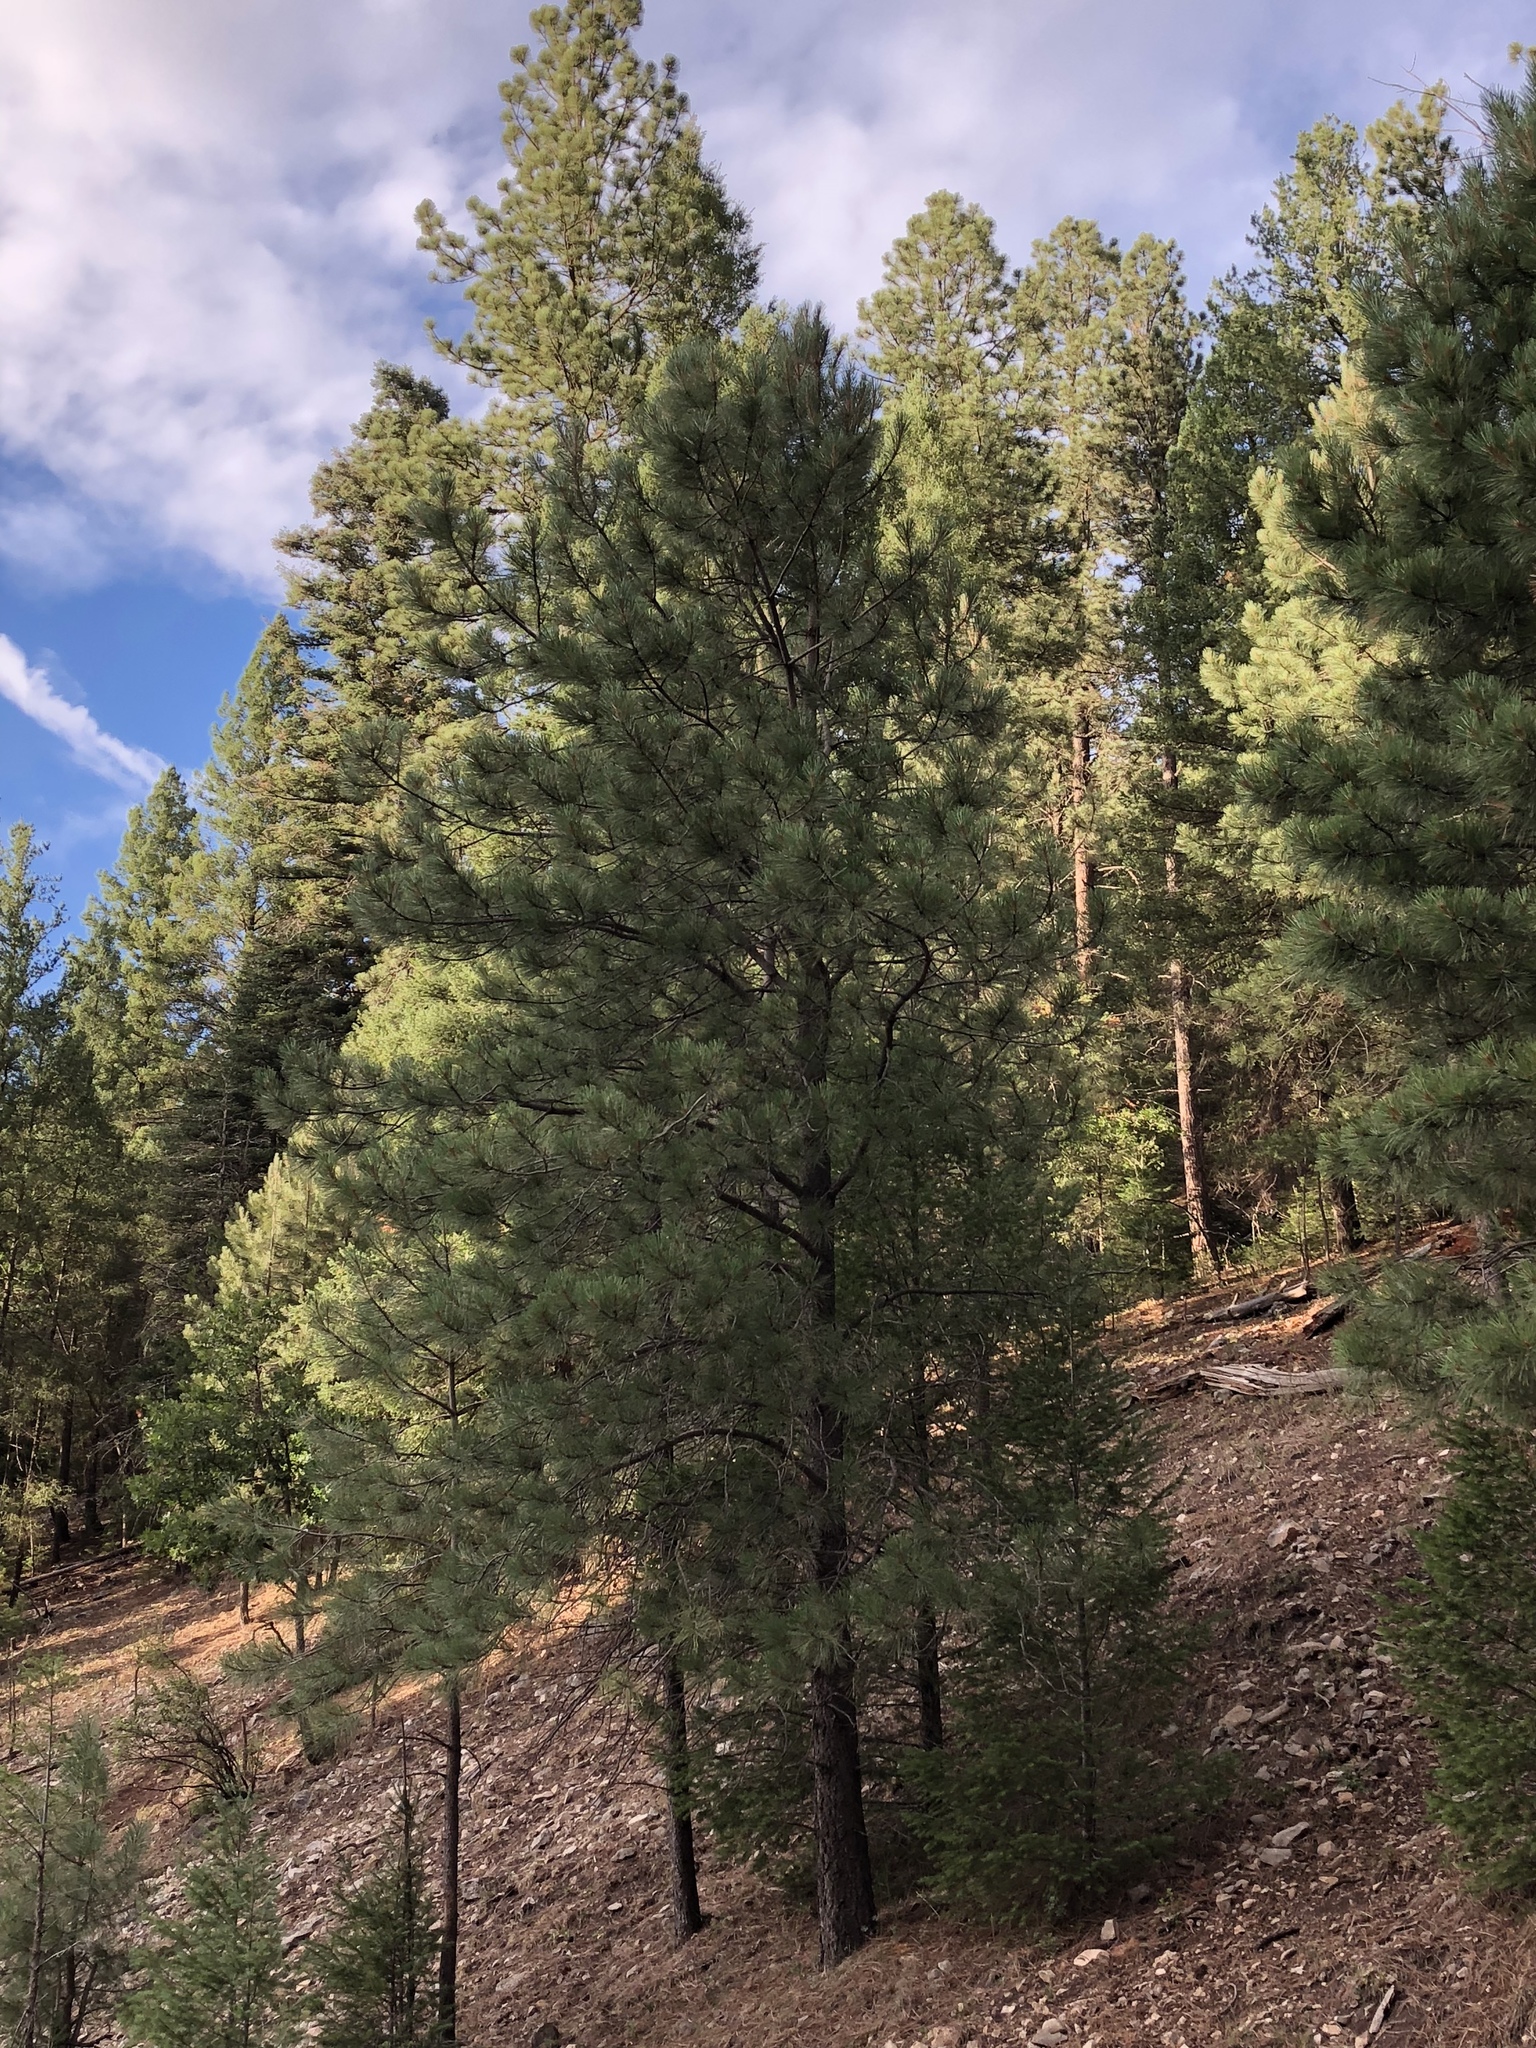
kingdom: Plantae
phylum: Tracheophyta
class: Pinopsida
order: Pinales
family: Pinaceae
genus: Pinus
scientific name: Pinus ponderosa
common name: Western yellow-pine
